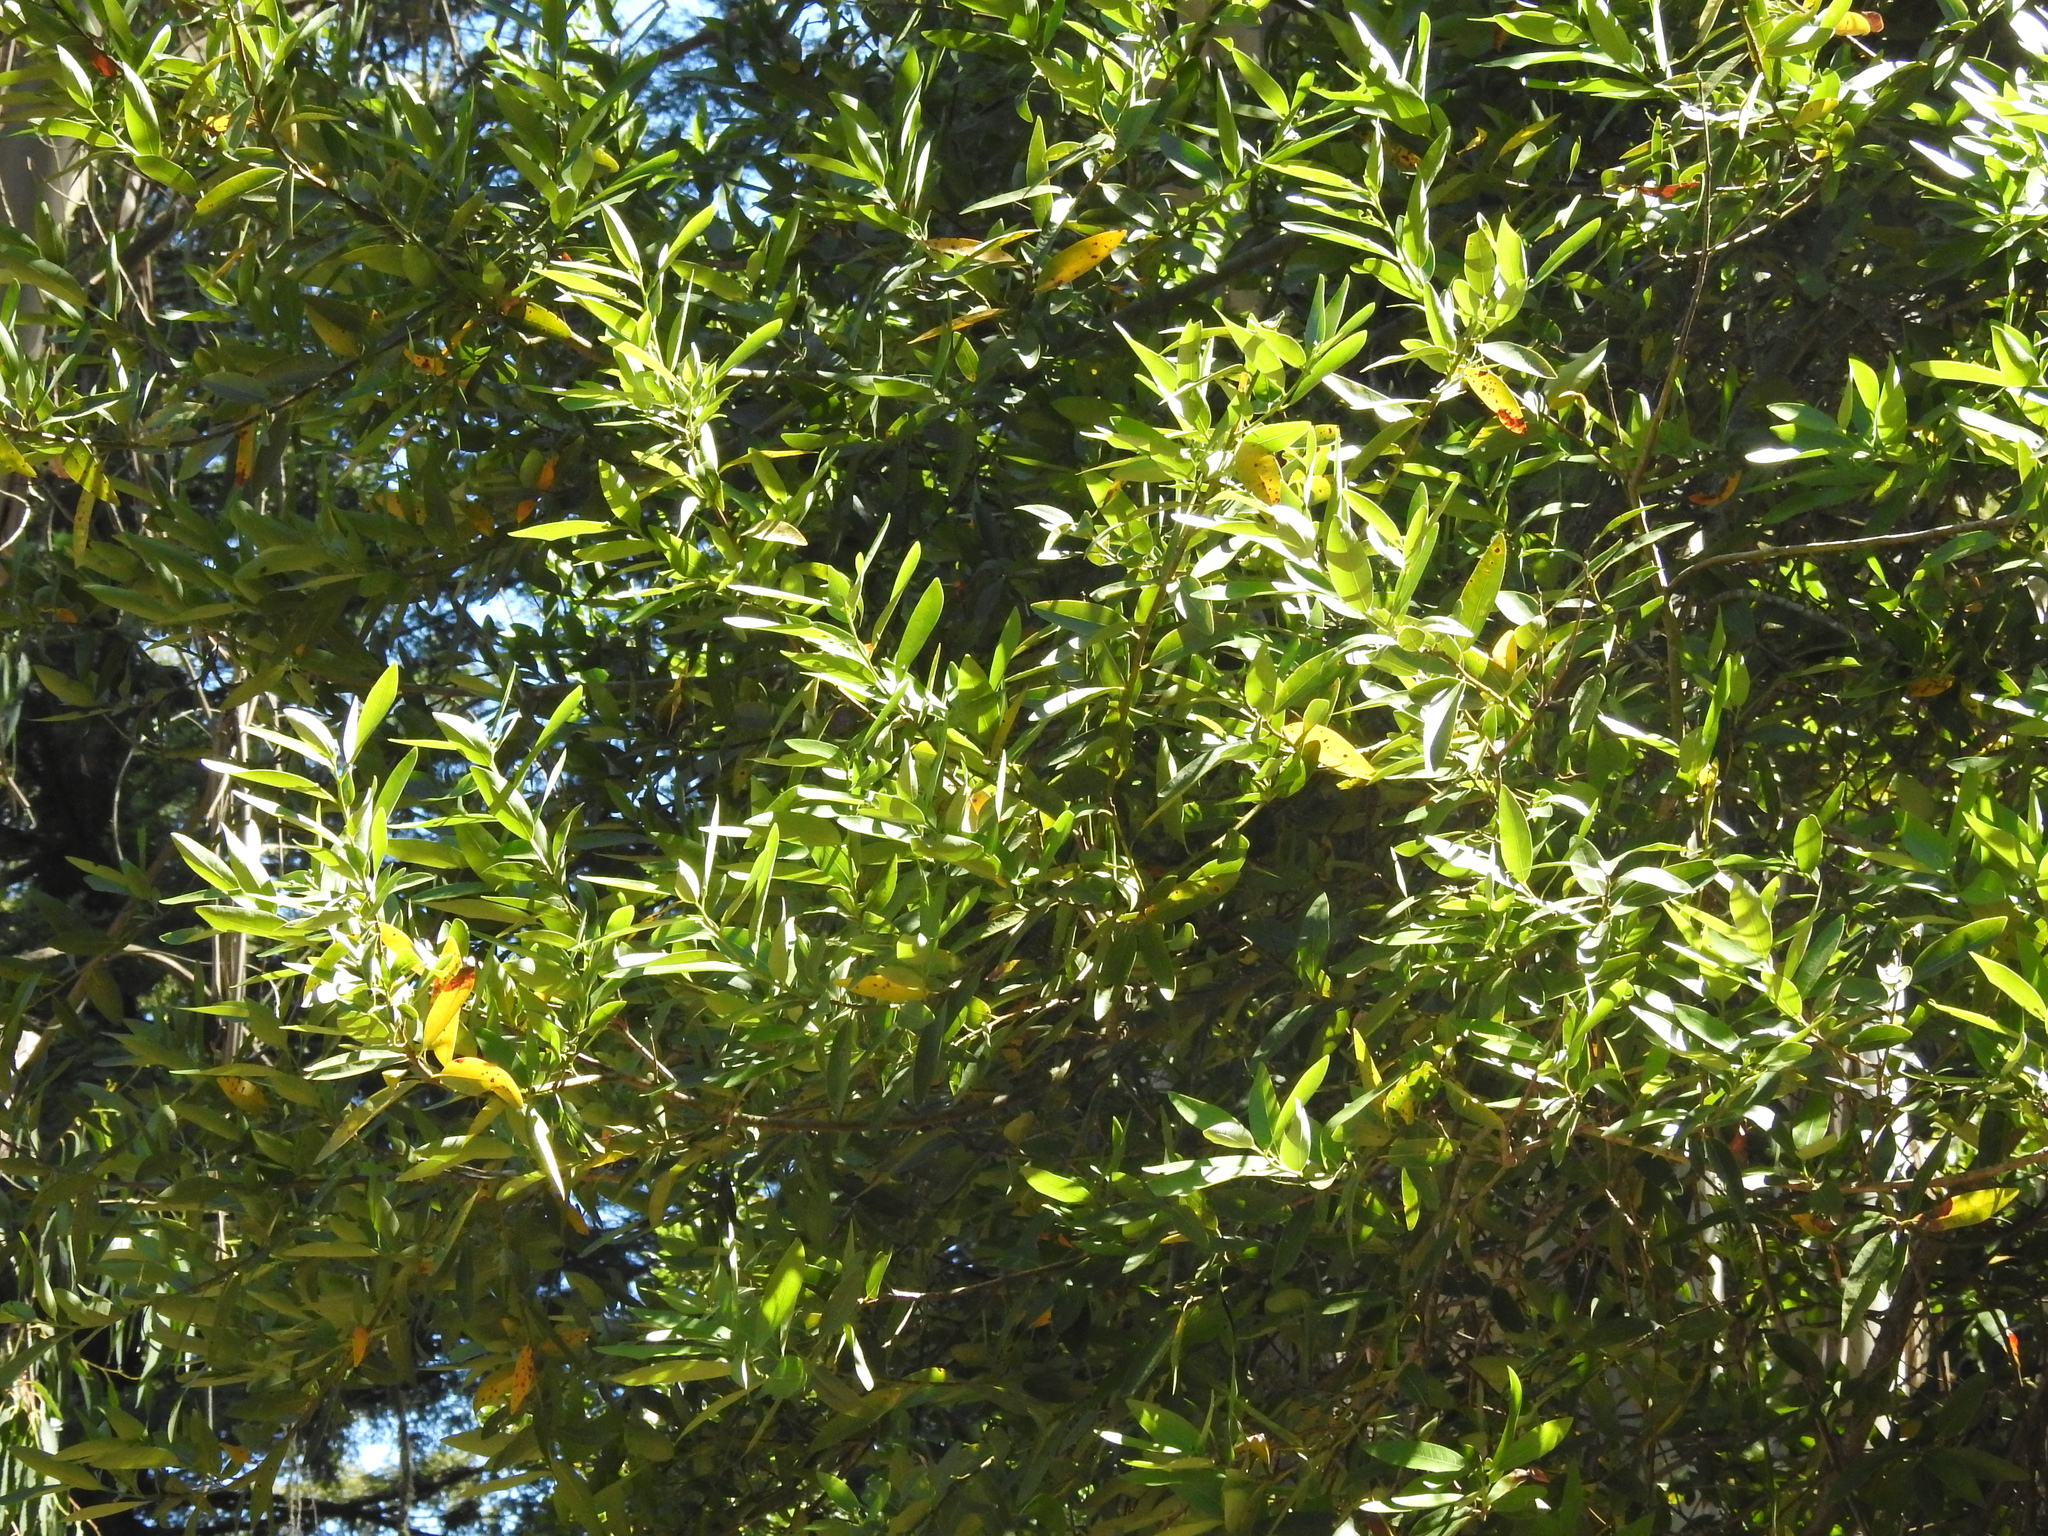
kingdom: Plantae
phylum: Tracheophyta
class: Magnoliopsida
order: Laurales
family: Lauraceae
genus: Umbellularia
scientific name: Umbellularia californica
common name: California bay
